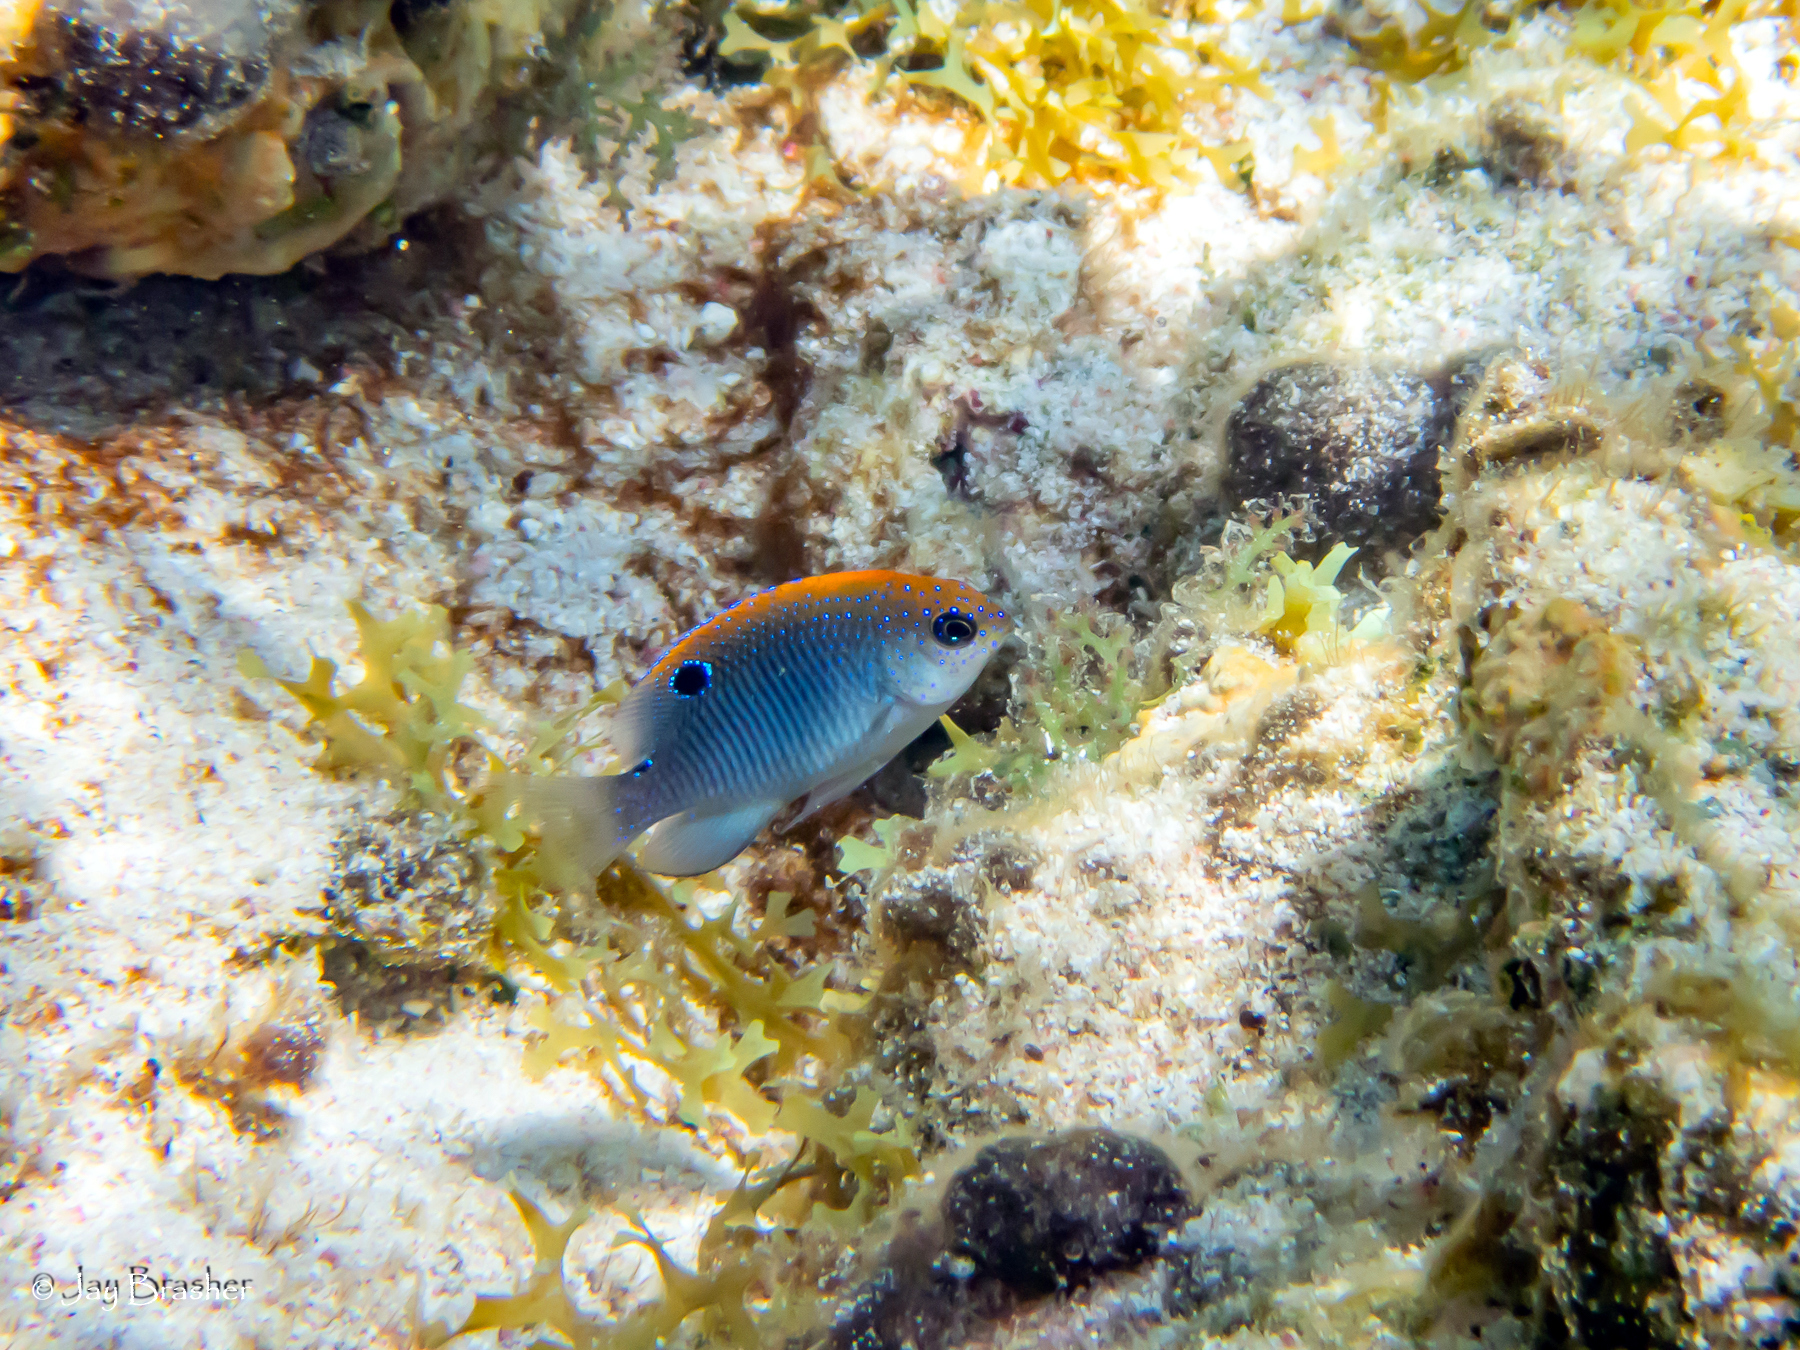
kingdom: Animalia
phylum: Chordata
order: Perciformes
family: Pomacentridae
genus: Stegastes
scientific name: Stegastes adustus
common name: Dusky damselfish
